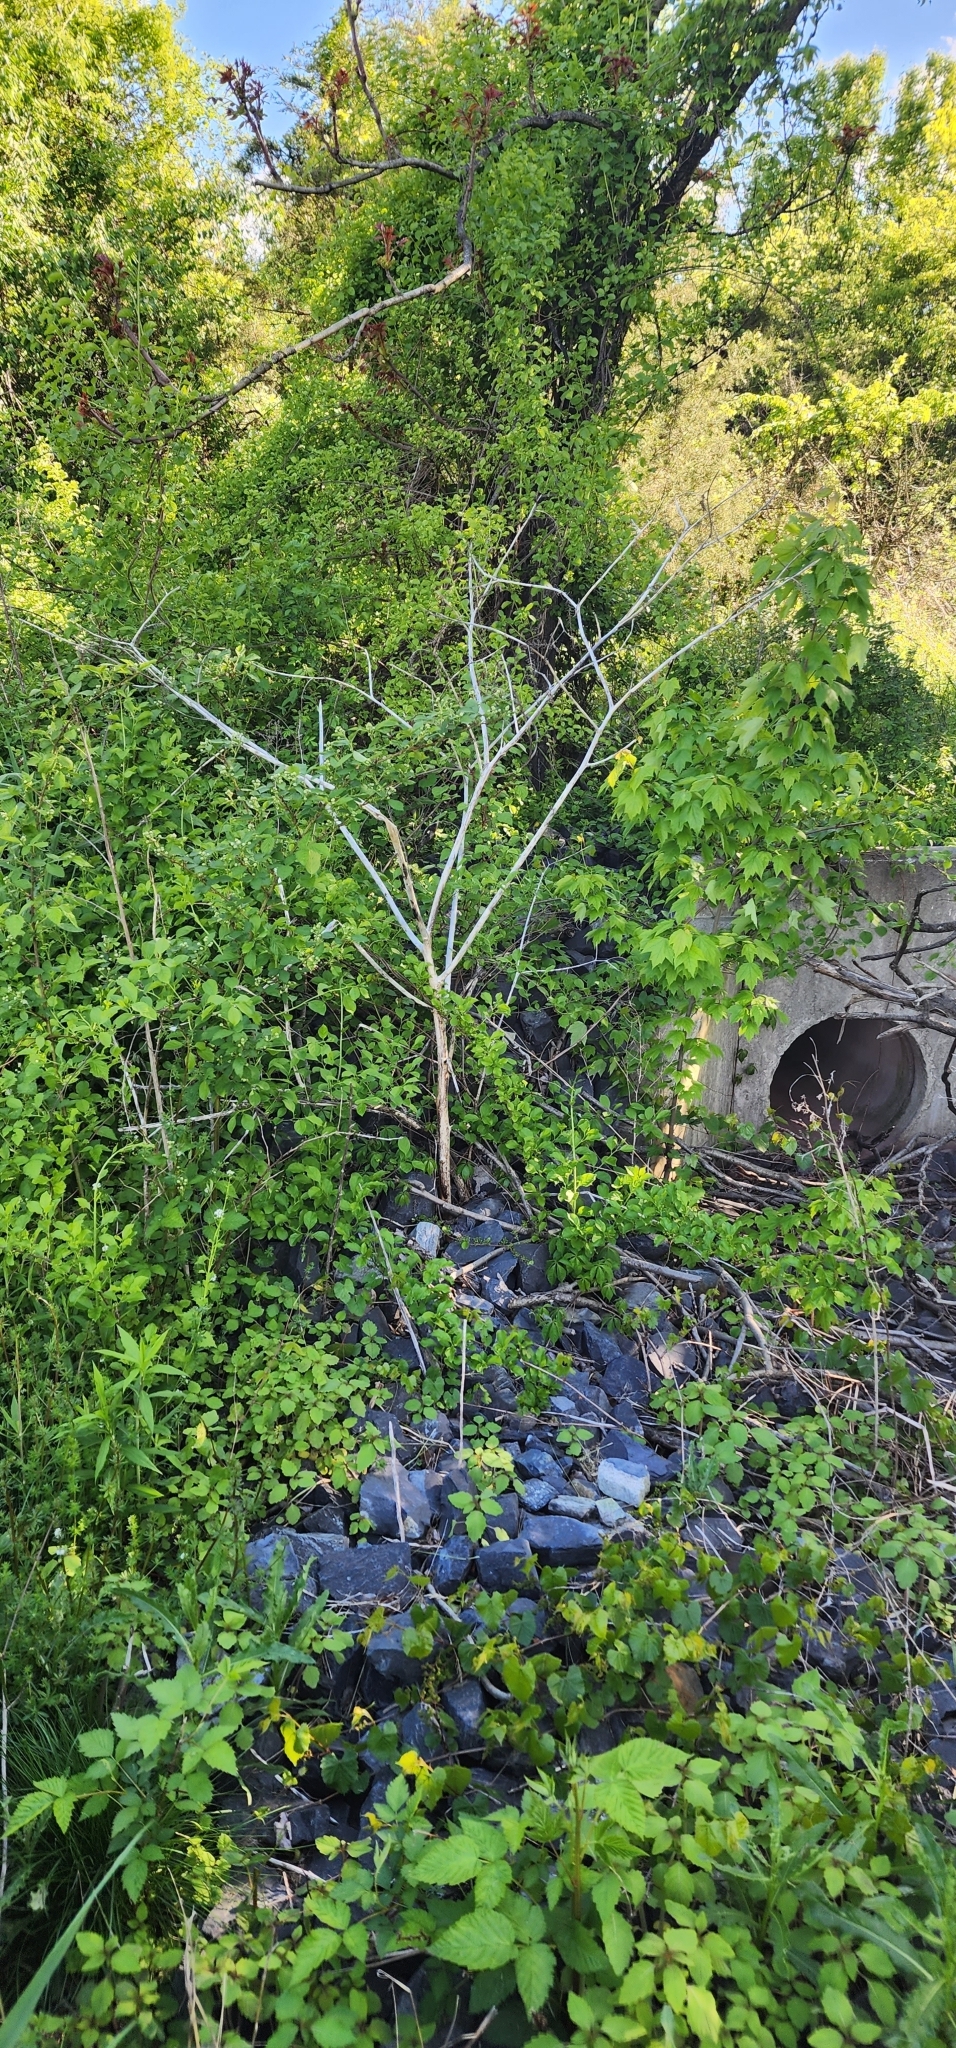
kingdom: Plantae
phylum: Tracheophyta
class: Magnoliopsida
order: Caryophyllales
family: Phytolaccaceae
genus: Phytolacca
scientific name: Phytolacca americana
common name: American pokeweed
